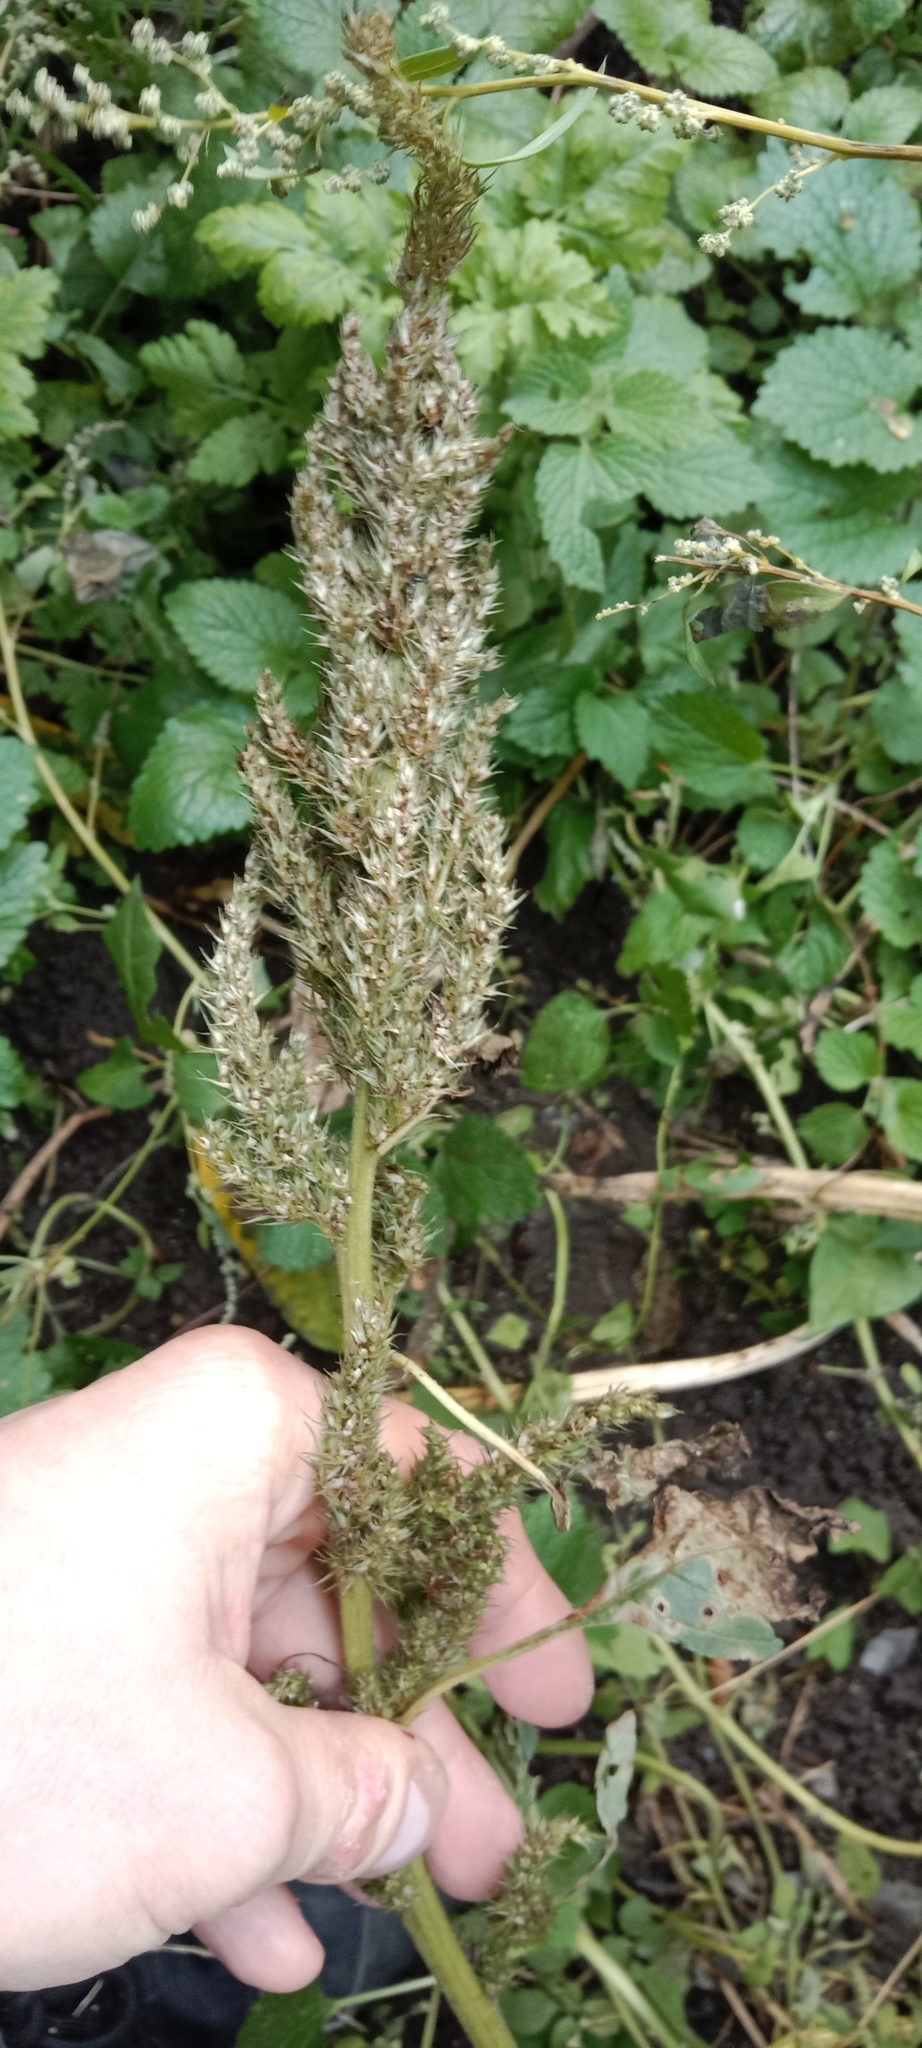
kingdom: Plantae
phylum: Tracheophyta
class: Magnoliopsida
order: Caryophyllales
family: Amaranthaceae
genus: Amaranthus
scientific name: Amaranthus retroflexus
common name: Redroot amaranth
